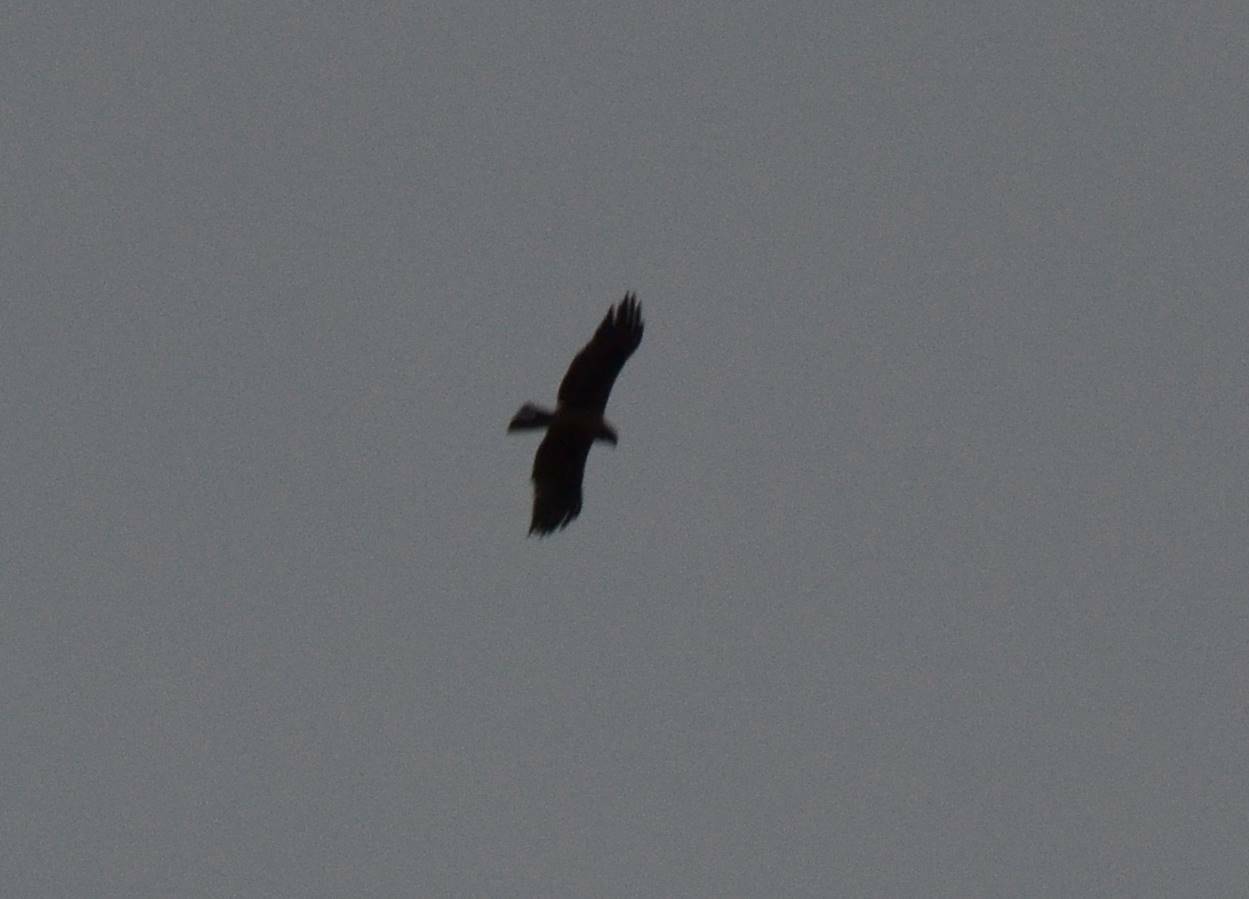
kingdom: Animalia
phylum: Chordata
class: Aves
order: Accipitriformes
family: Accipitridae
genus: Hieraaetus
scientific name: Hieraaetus pennatus
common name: Booted eagle
